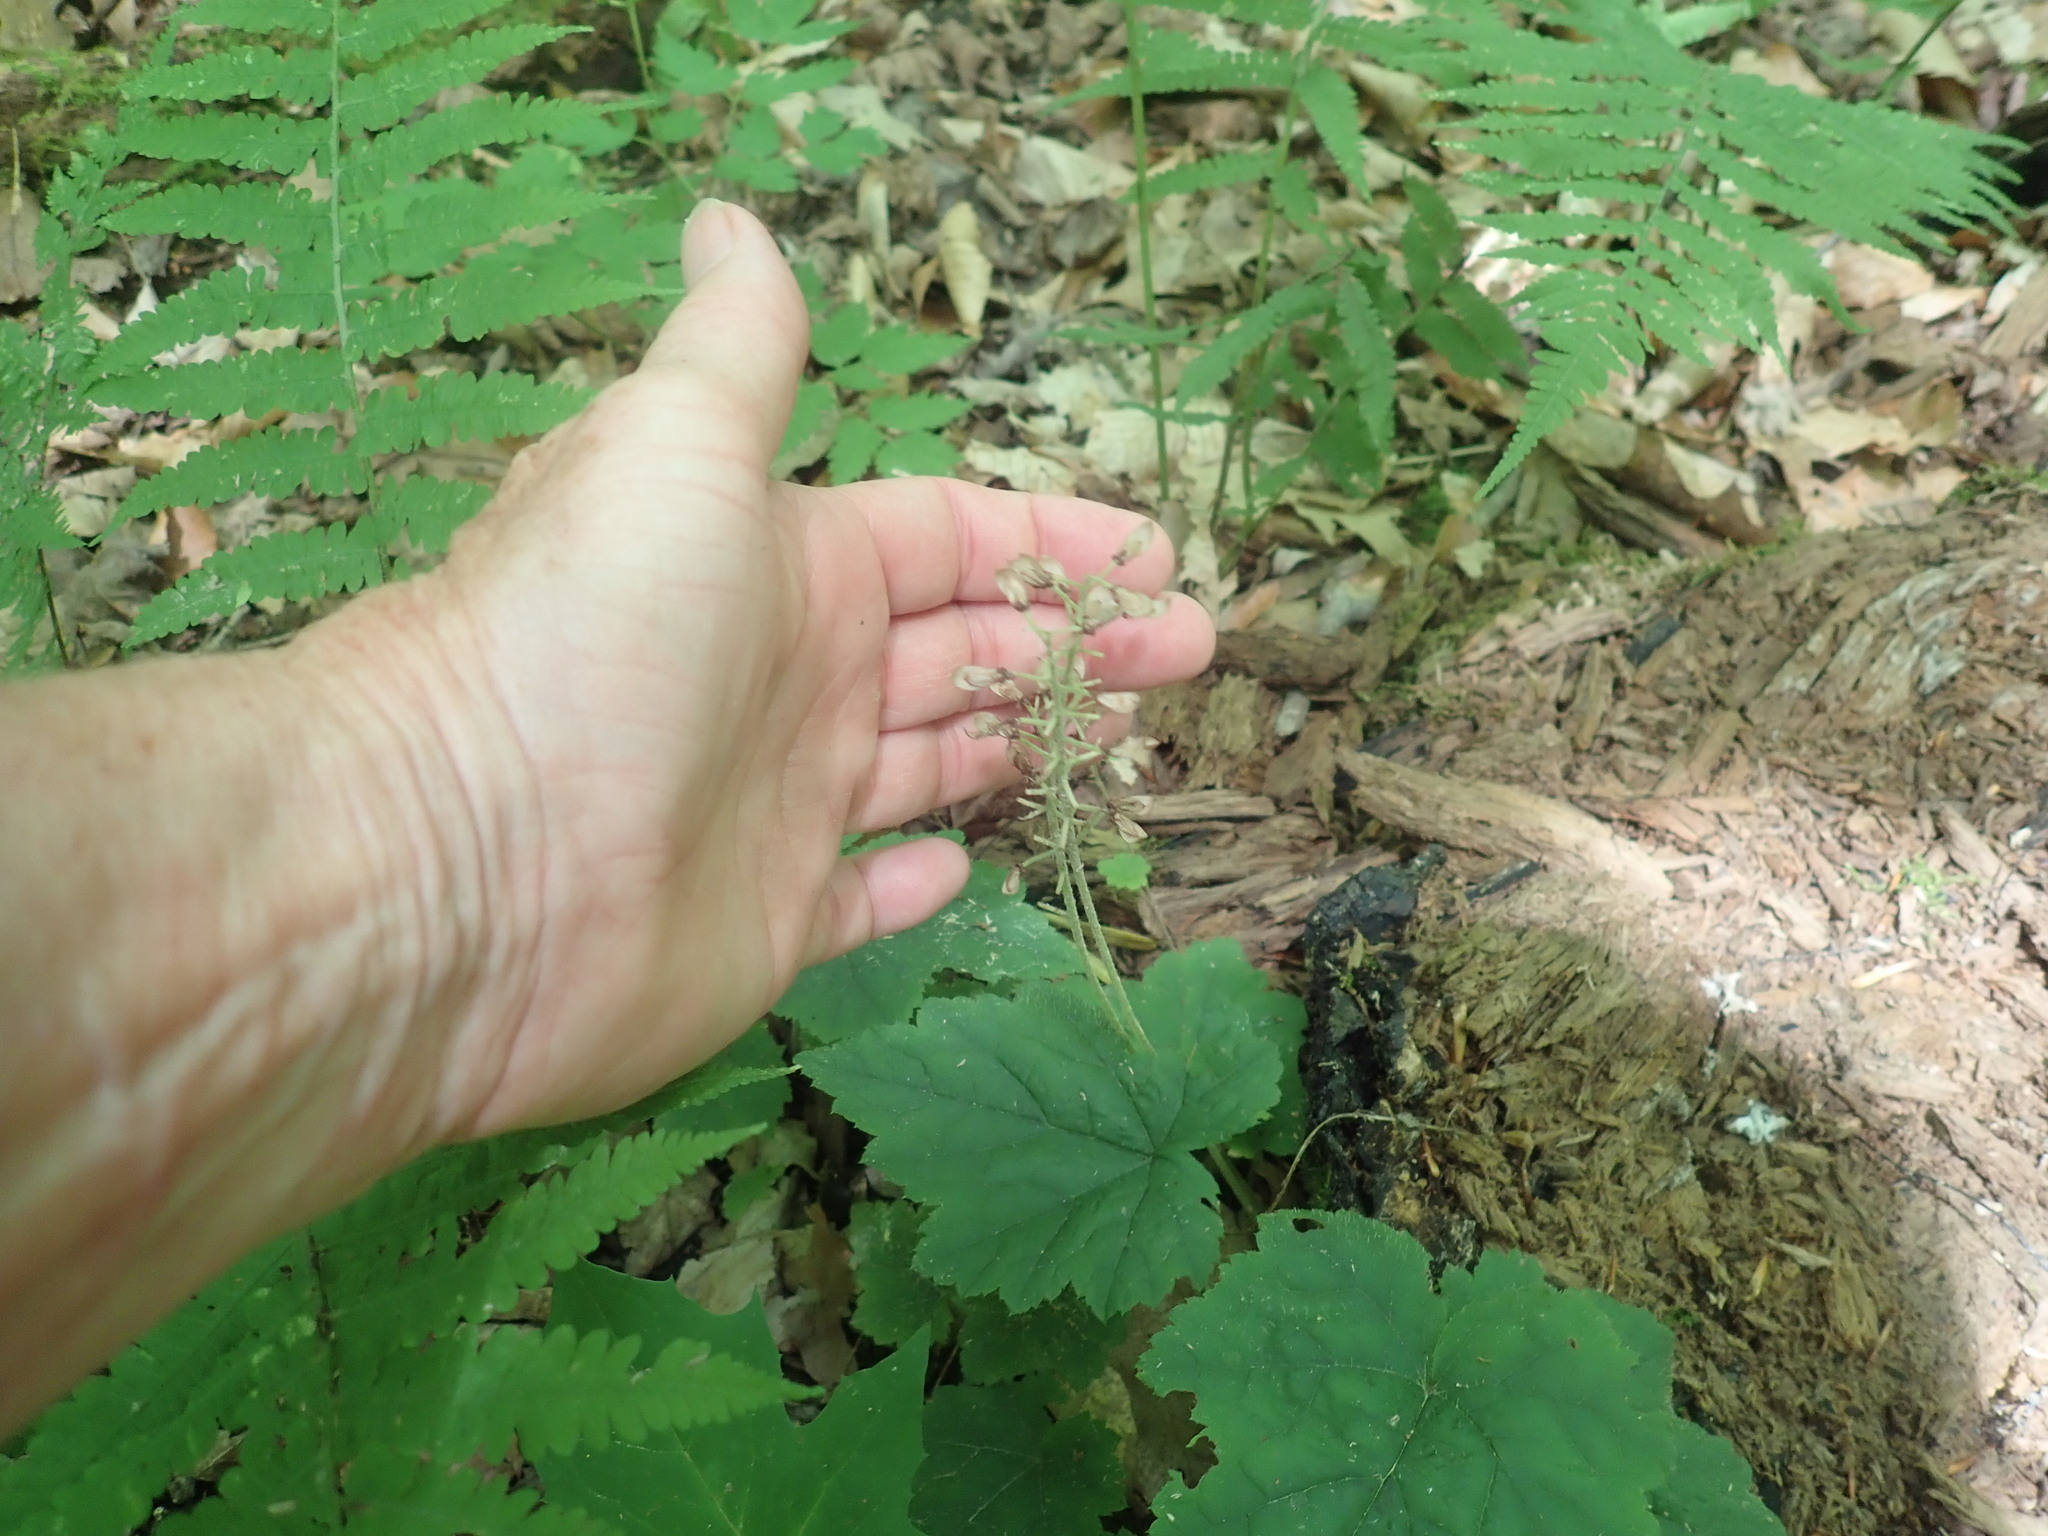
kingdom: Plantae
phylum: Tracheophyta
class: Magnoliopsida
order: Saxifragales
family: Saxifragaceae
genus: Tiarella
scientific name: Tiarella stolonifera
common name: Stoloniferous foamflower
